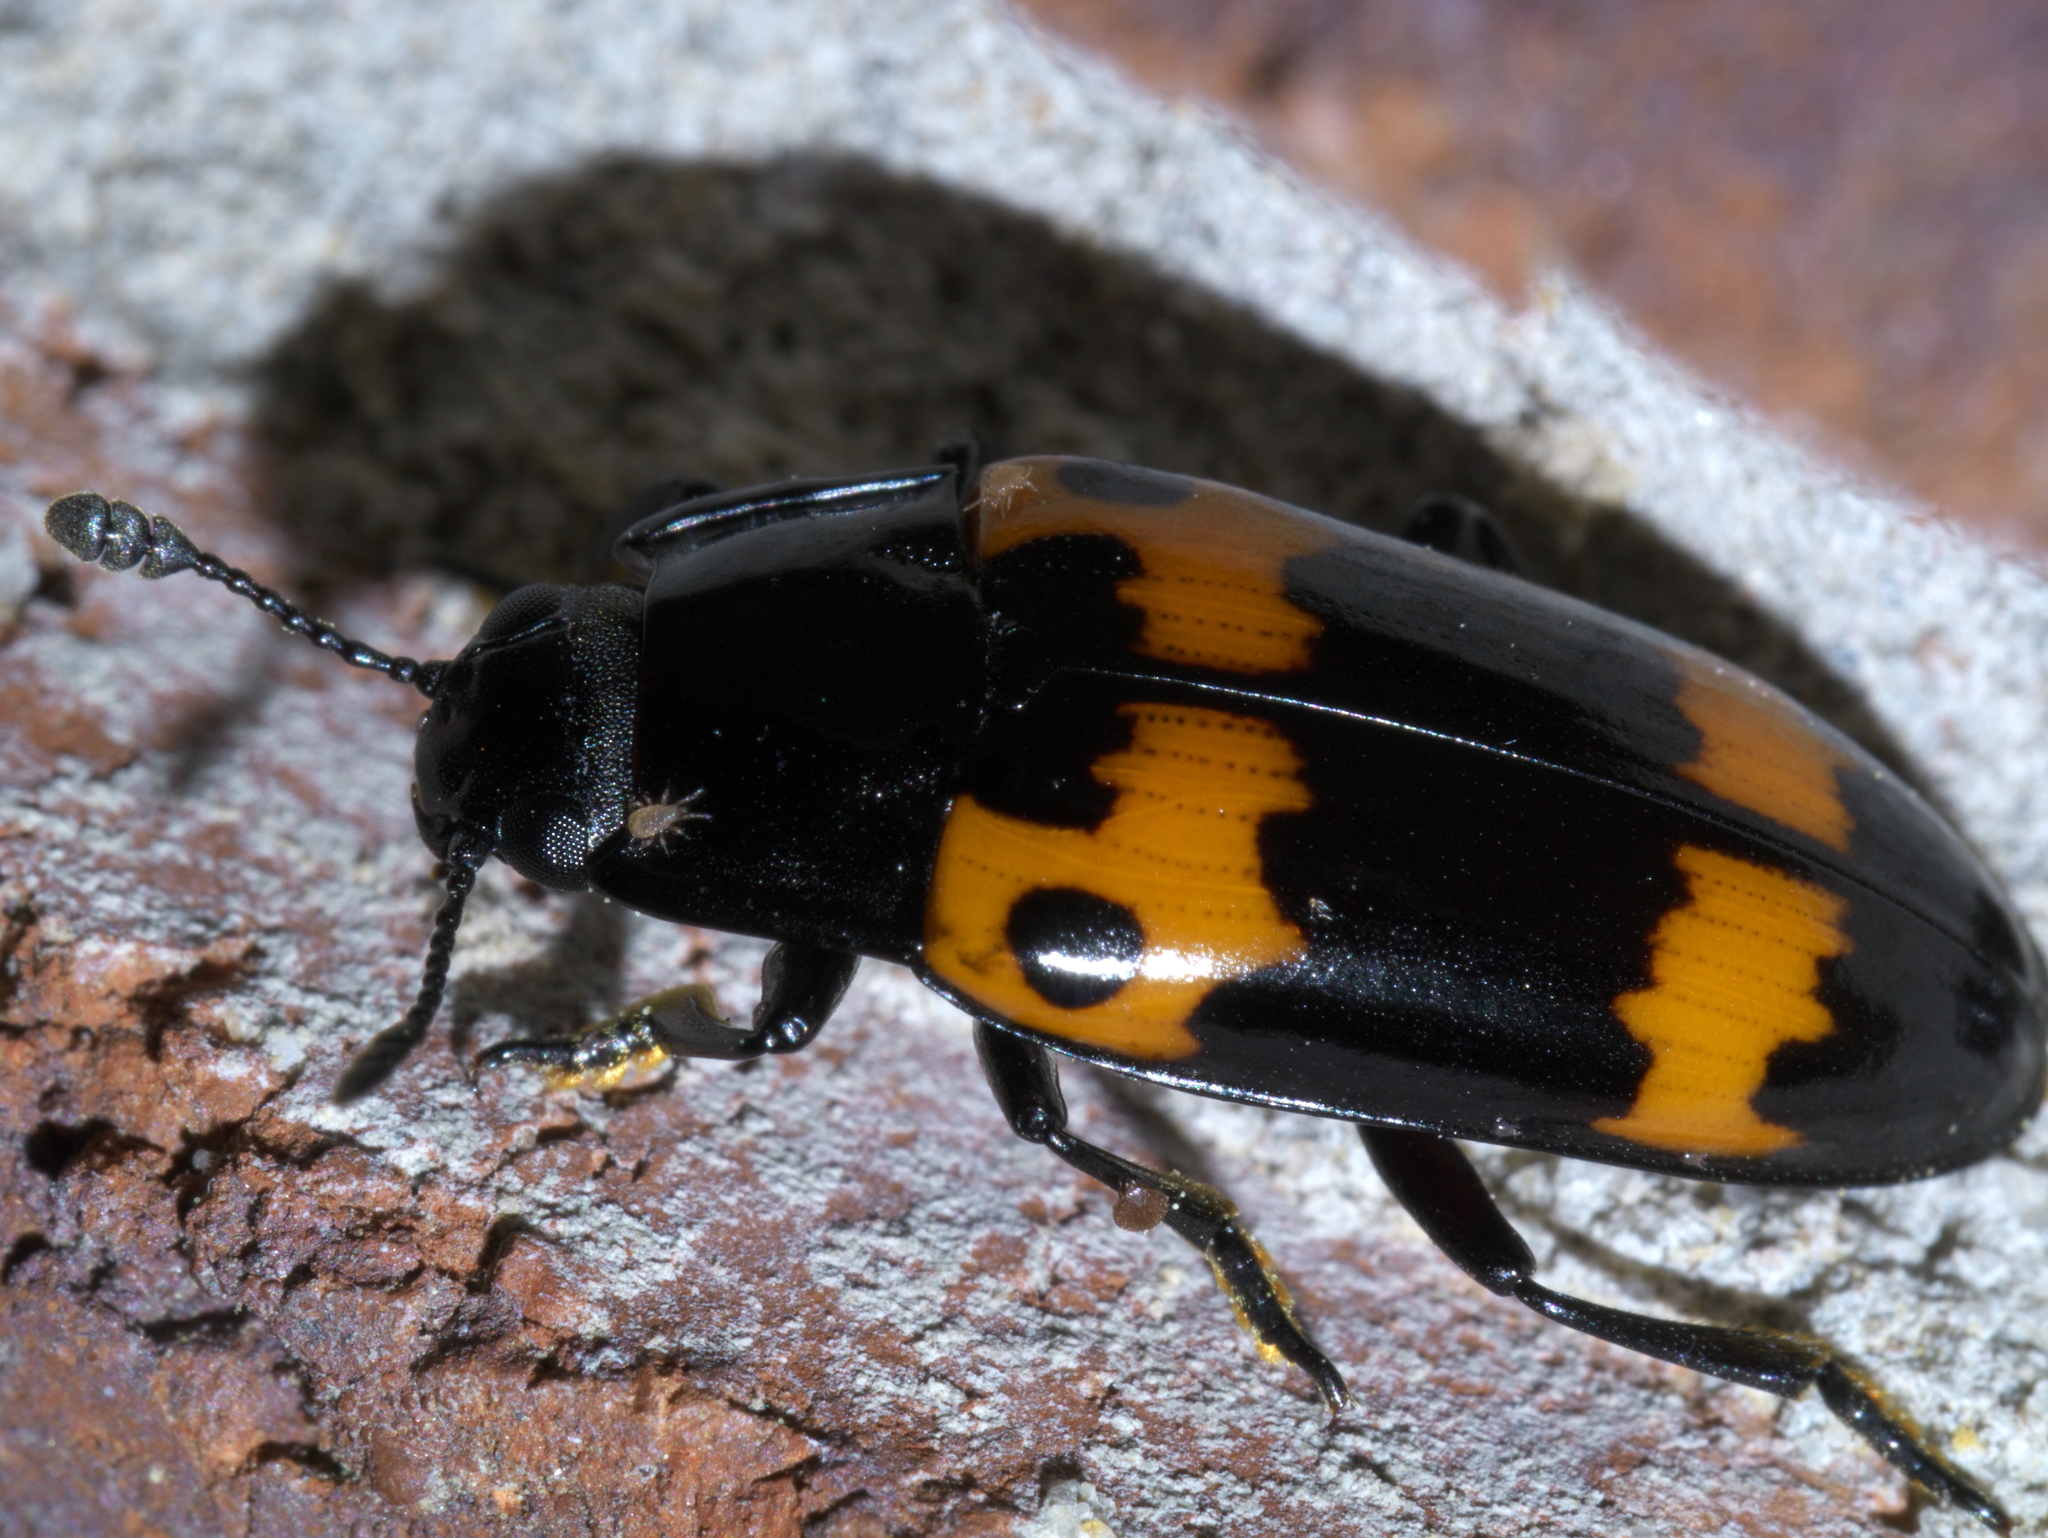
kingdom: Animalia
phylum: Arthropoda
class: Insecta
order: Coleoptera
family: Erotylidae
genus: Megalodacne
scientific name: Megalodacne fasciata
